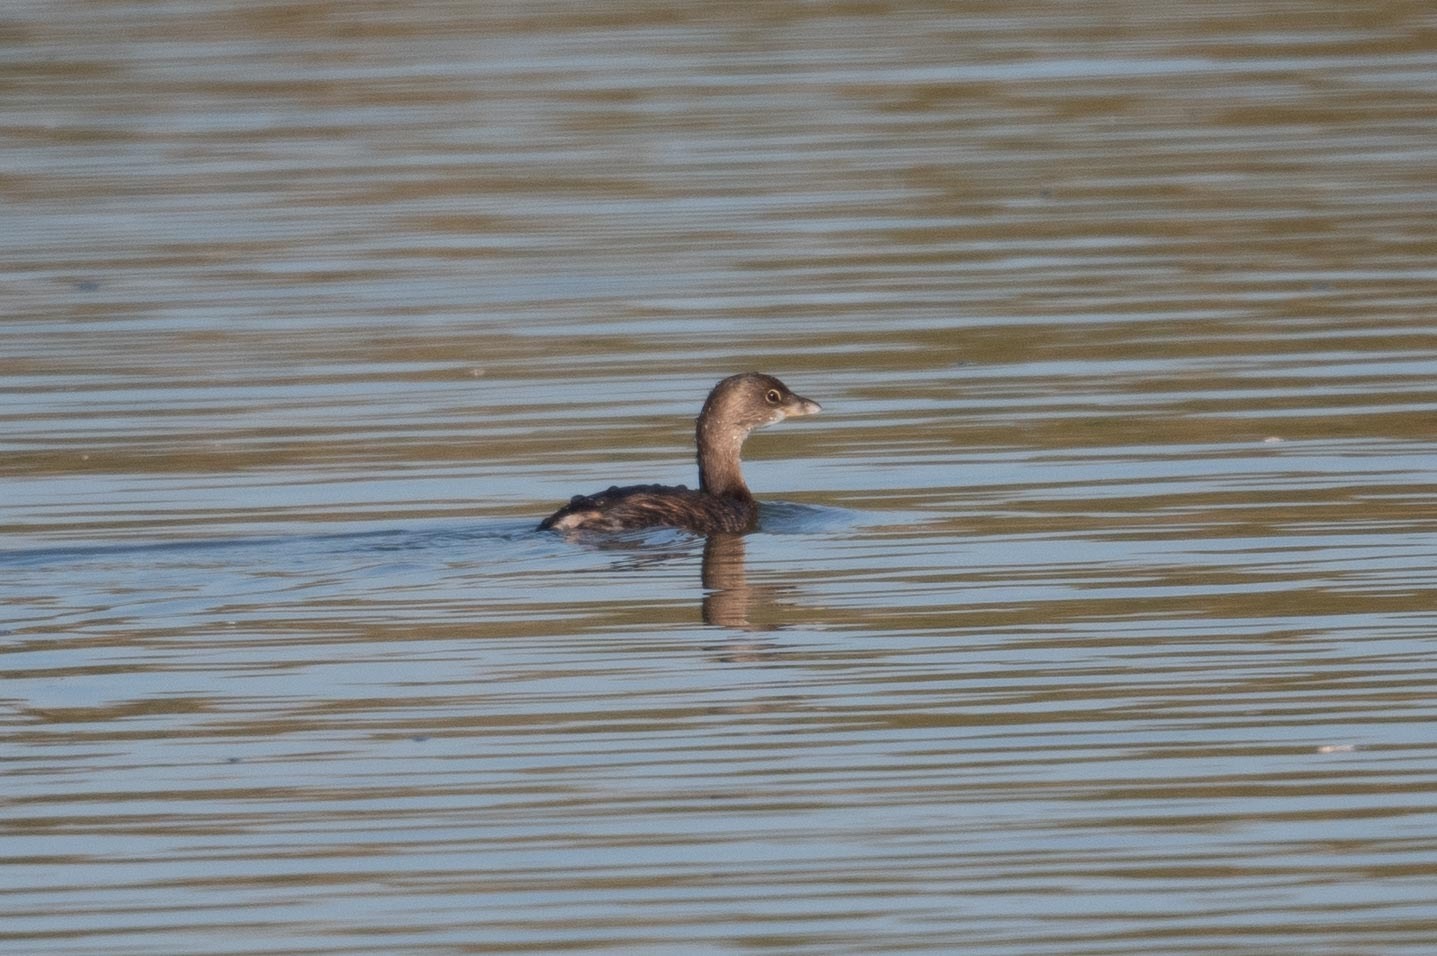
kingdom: Animalia
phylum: Chordata
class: Aves
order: Podicipediformes
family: Podicipedidae
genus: Podilymbus
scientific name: Podilymbus podiceps
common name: Pied-billed grebe
